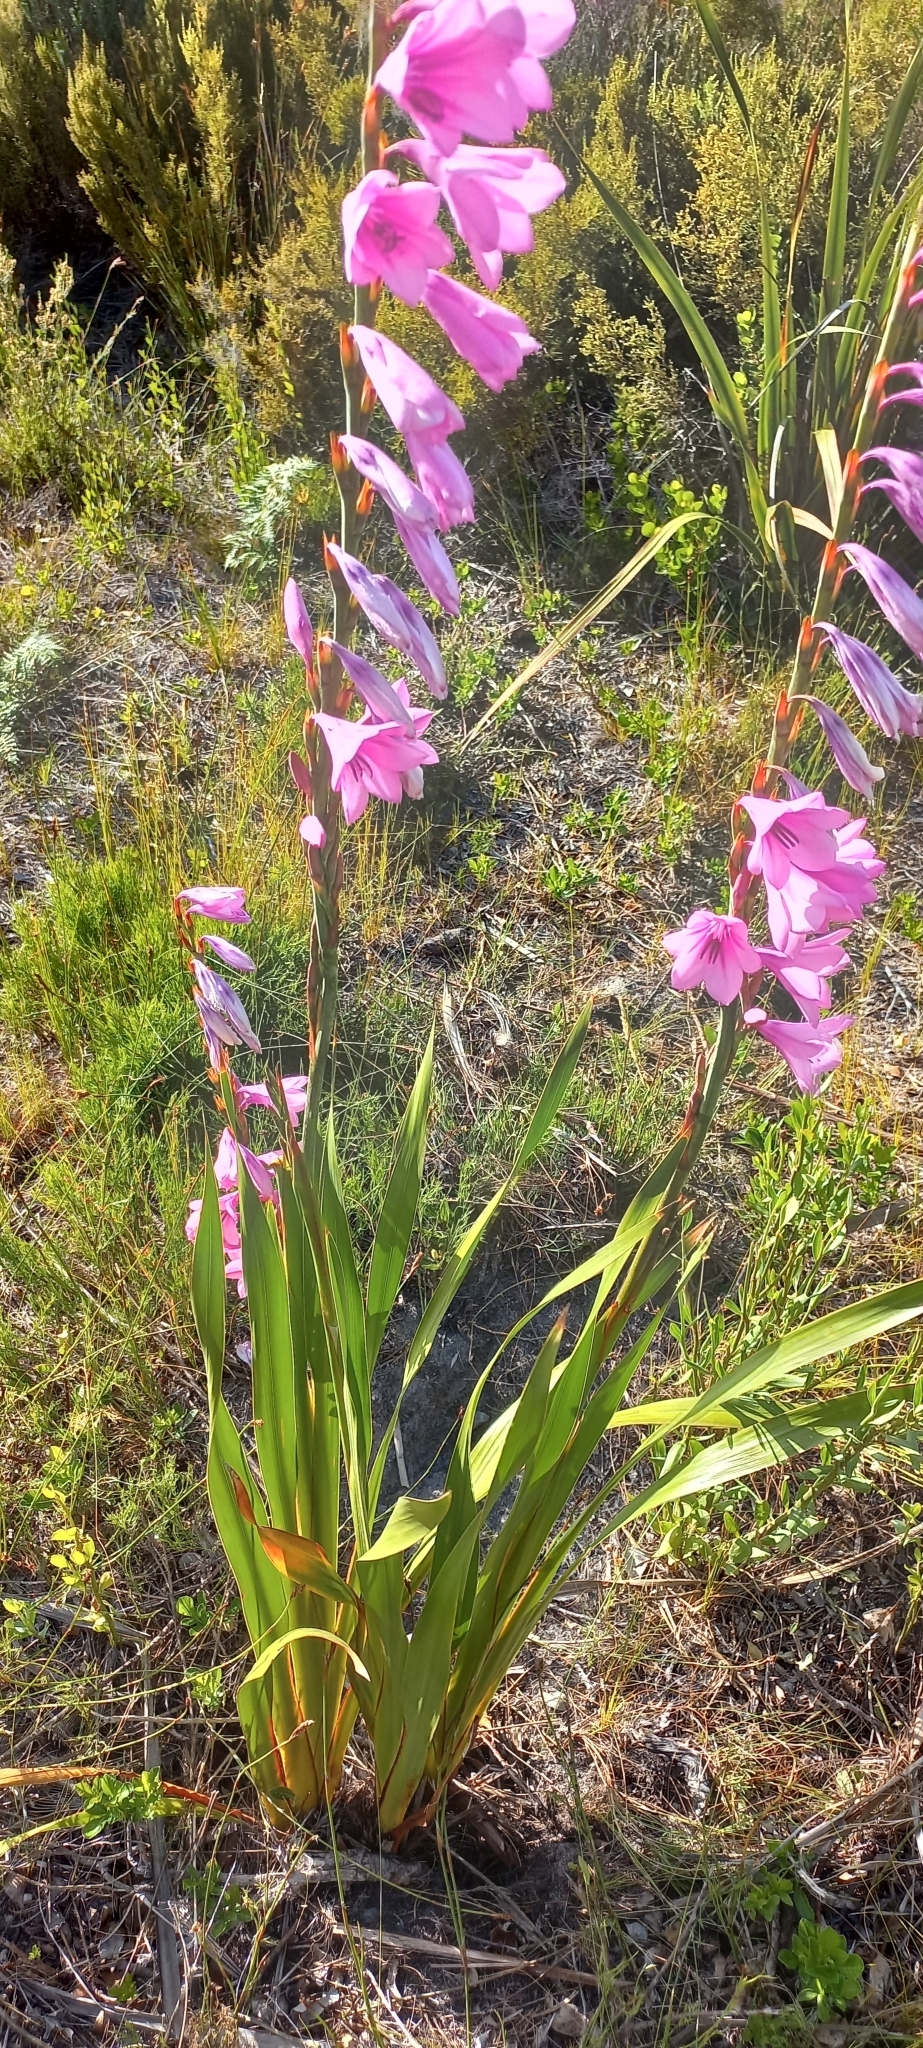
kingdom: Plantae
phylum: Tracheophyta
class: Liliopsida
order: Asparagales
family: Iridaceae
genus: Watsonia
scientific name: Watsonia borbonica
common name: Bugle-lily
